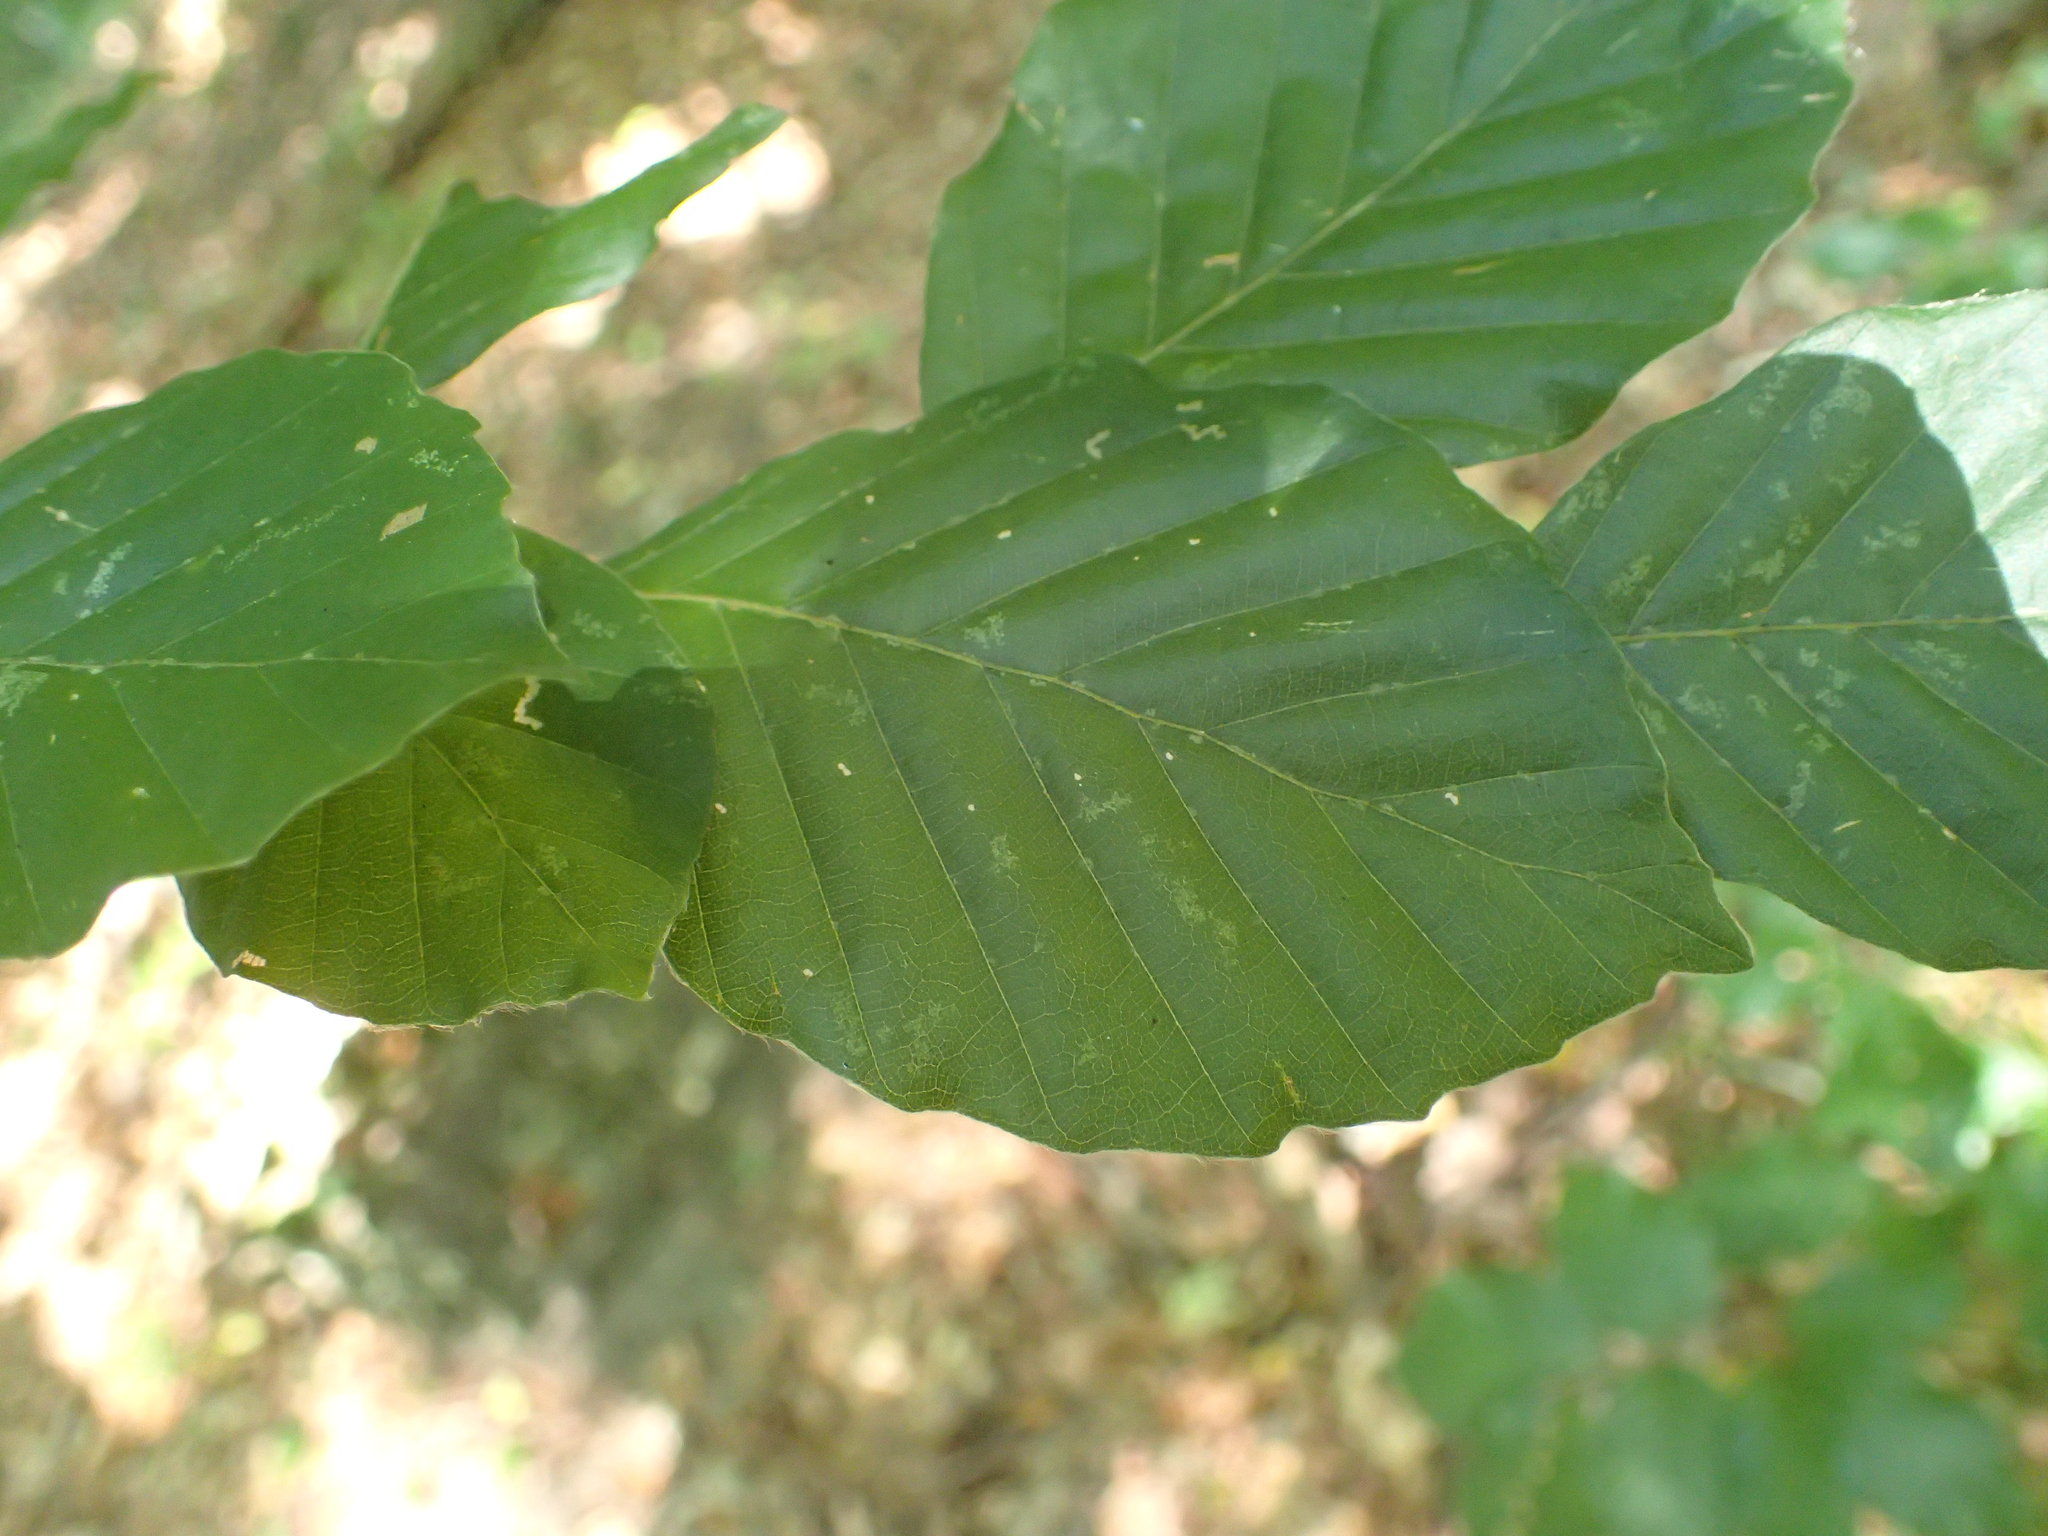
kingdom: Plantae
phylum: Tracheophyta
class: Magnoliopsida
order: Fagales
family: Fagaceae
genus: Fagus
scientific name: Fagus sylvatica
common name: Beech
